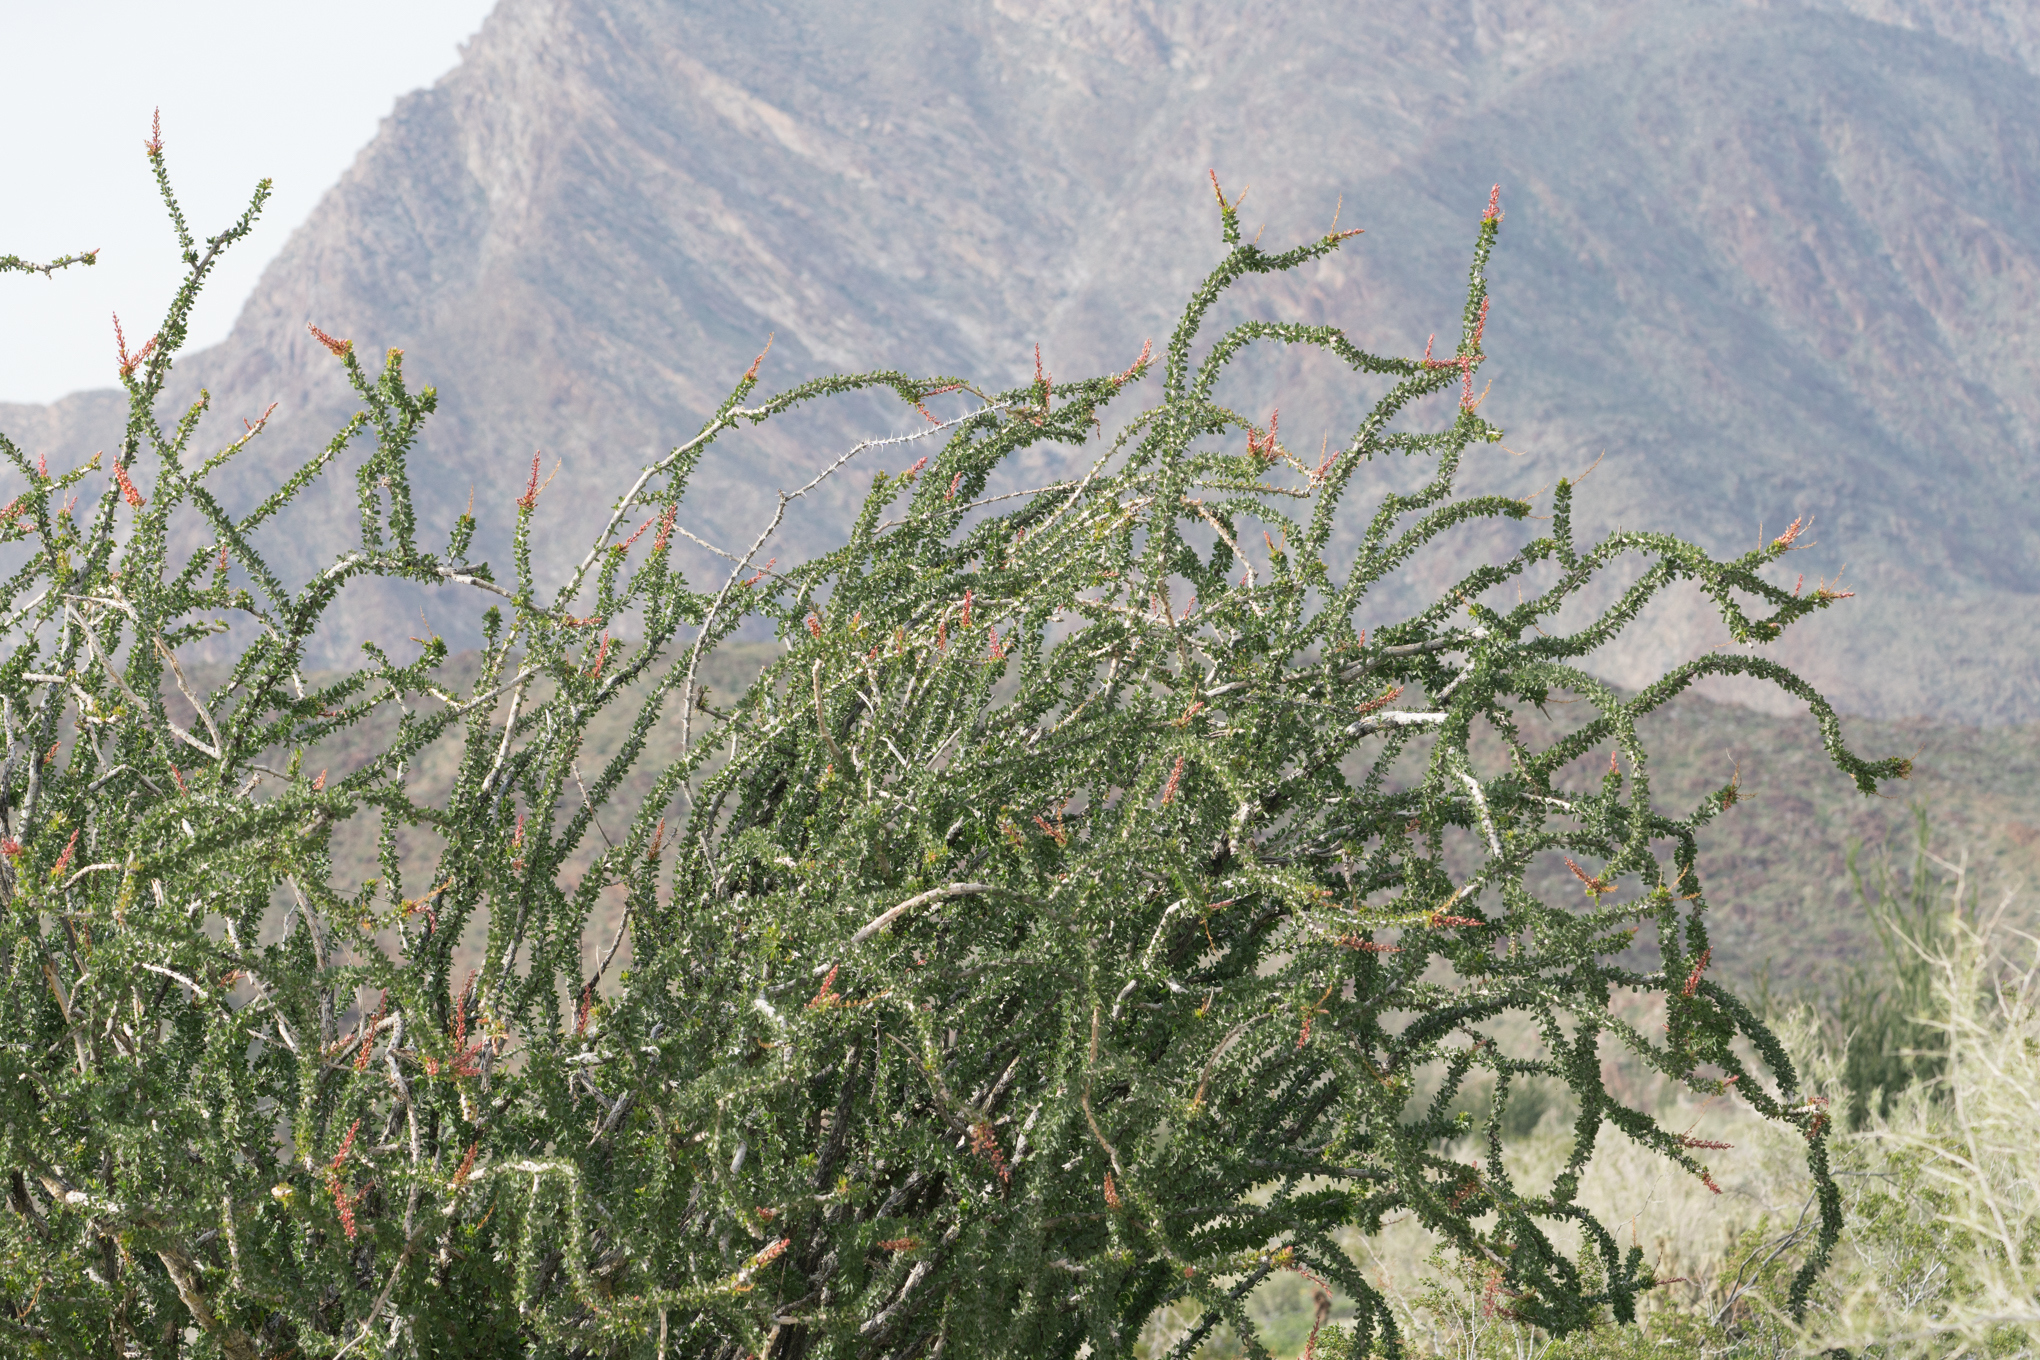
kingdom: Plantae
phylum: Tracheophyta
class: Magnoliopsida
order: Ericales
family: Fouquieriaceae
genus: Fouquieria
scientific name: Fouquieria splendens
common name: Vine-cactus
